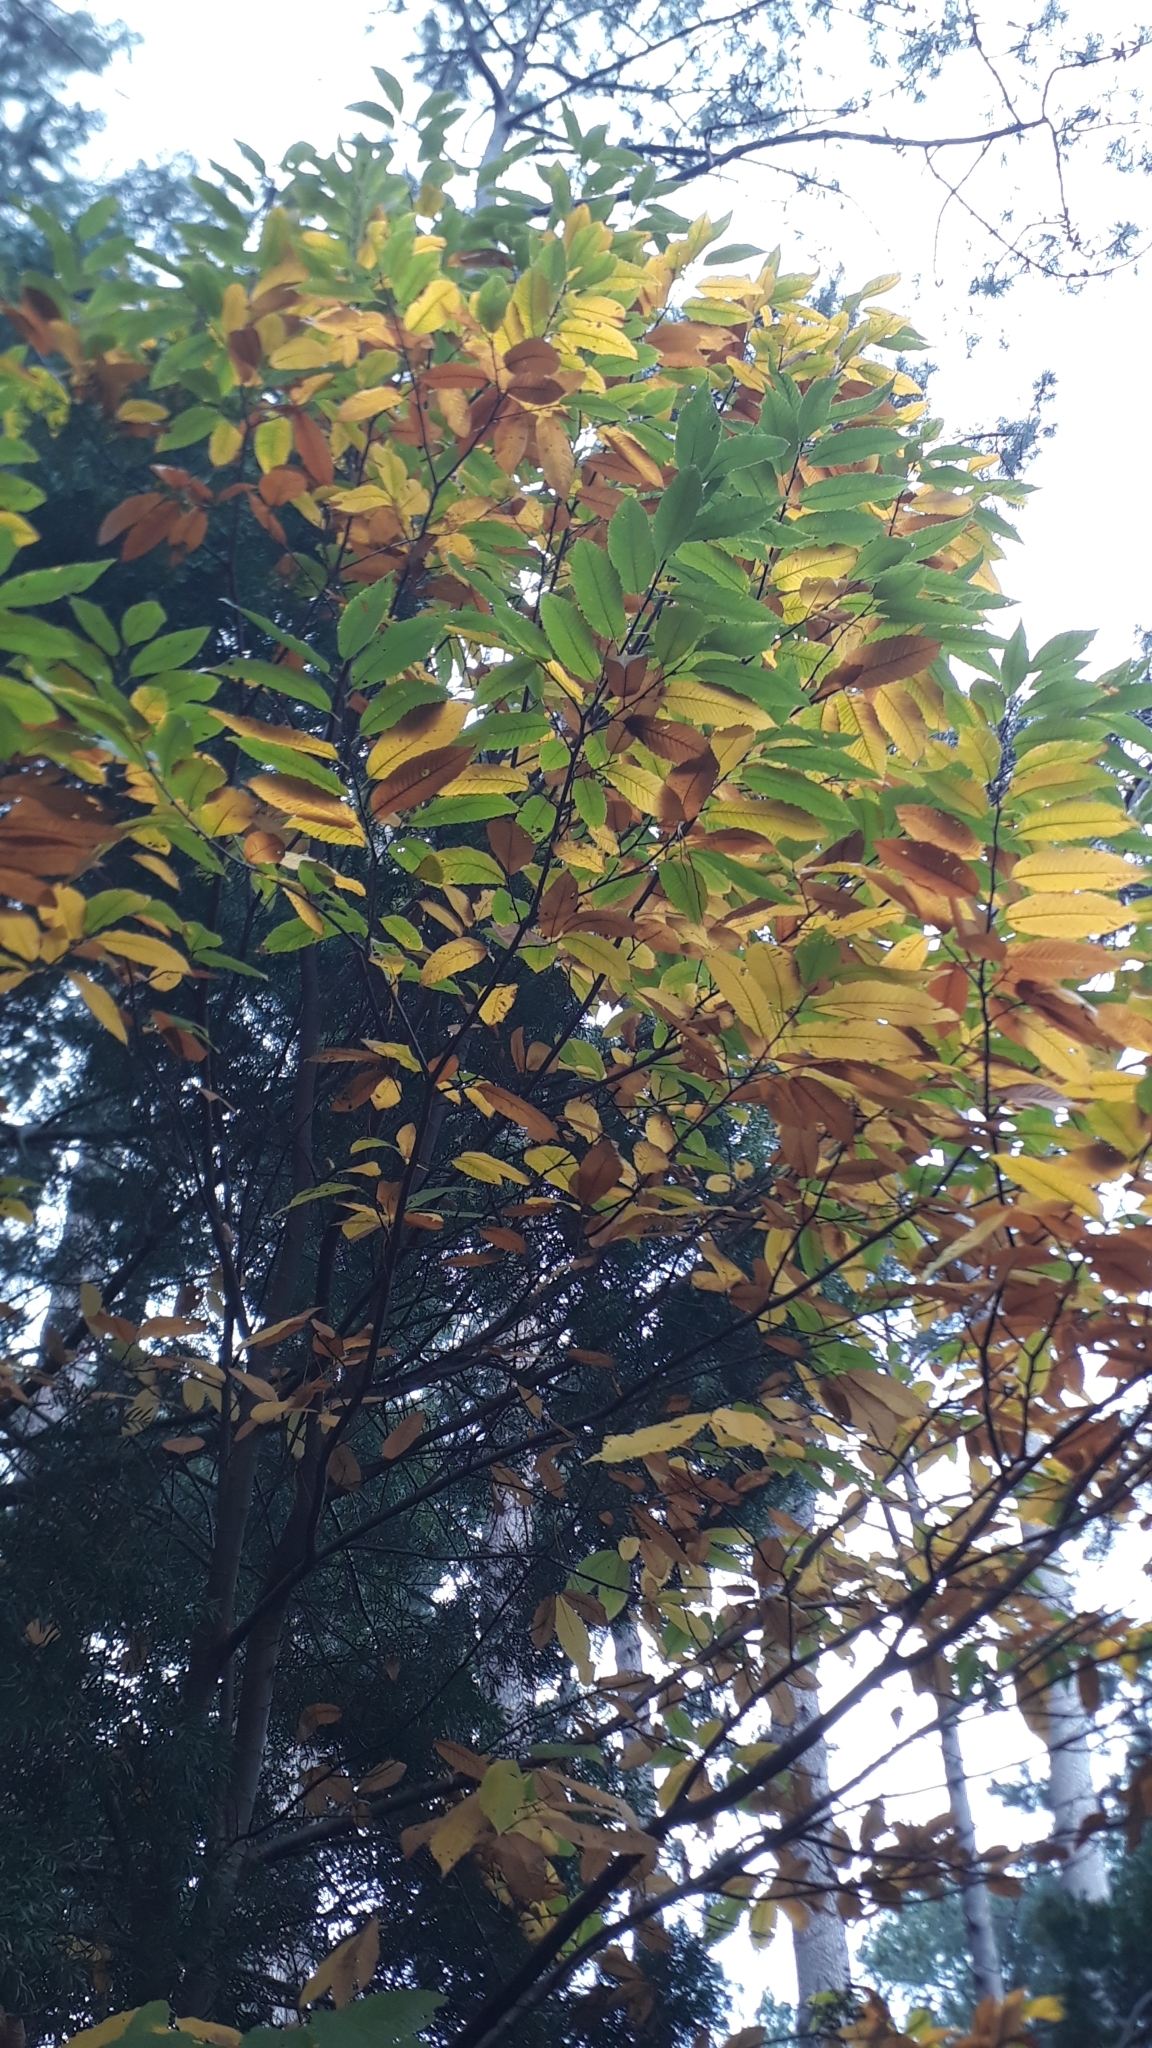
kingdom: Plantae
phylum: Tracheophyta
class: Magnoliopsida
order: Fagales
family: Fagaceae
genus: Castanea
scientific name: Castanea sativa
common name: Sweet chestnut
